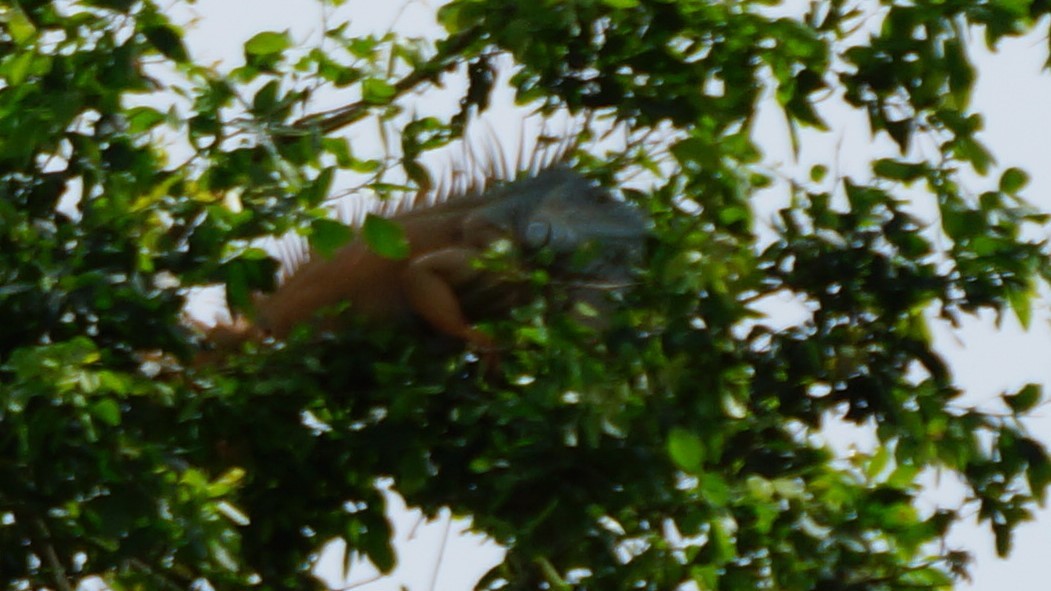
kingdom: Animalia
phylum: Chordata
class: Squamata
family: Iguanidae
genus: Iguana
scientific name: Iguana iguana
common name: Green iguana
